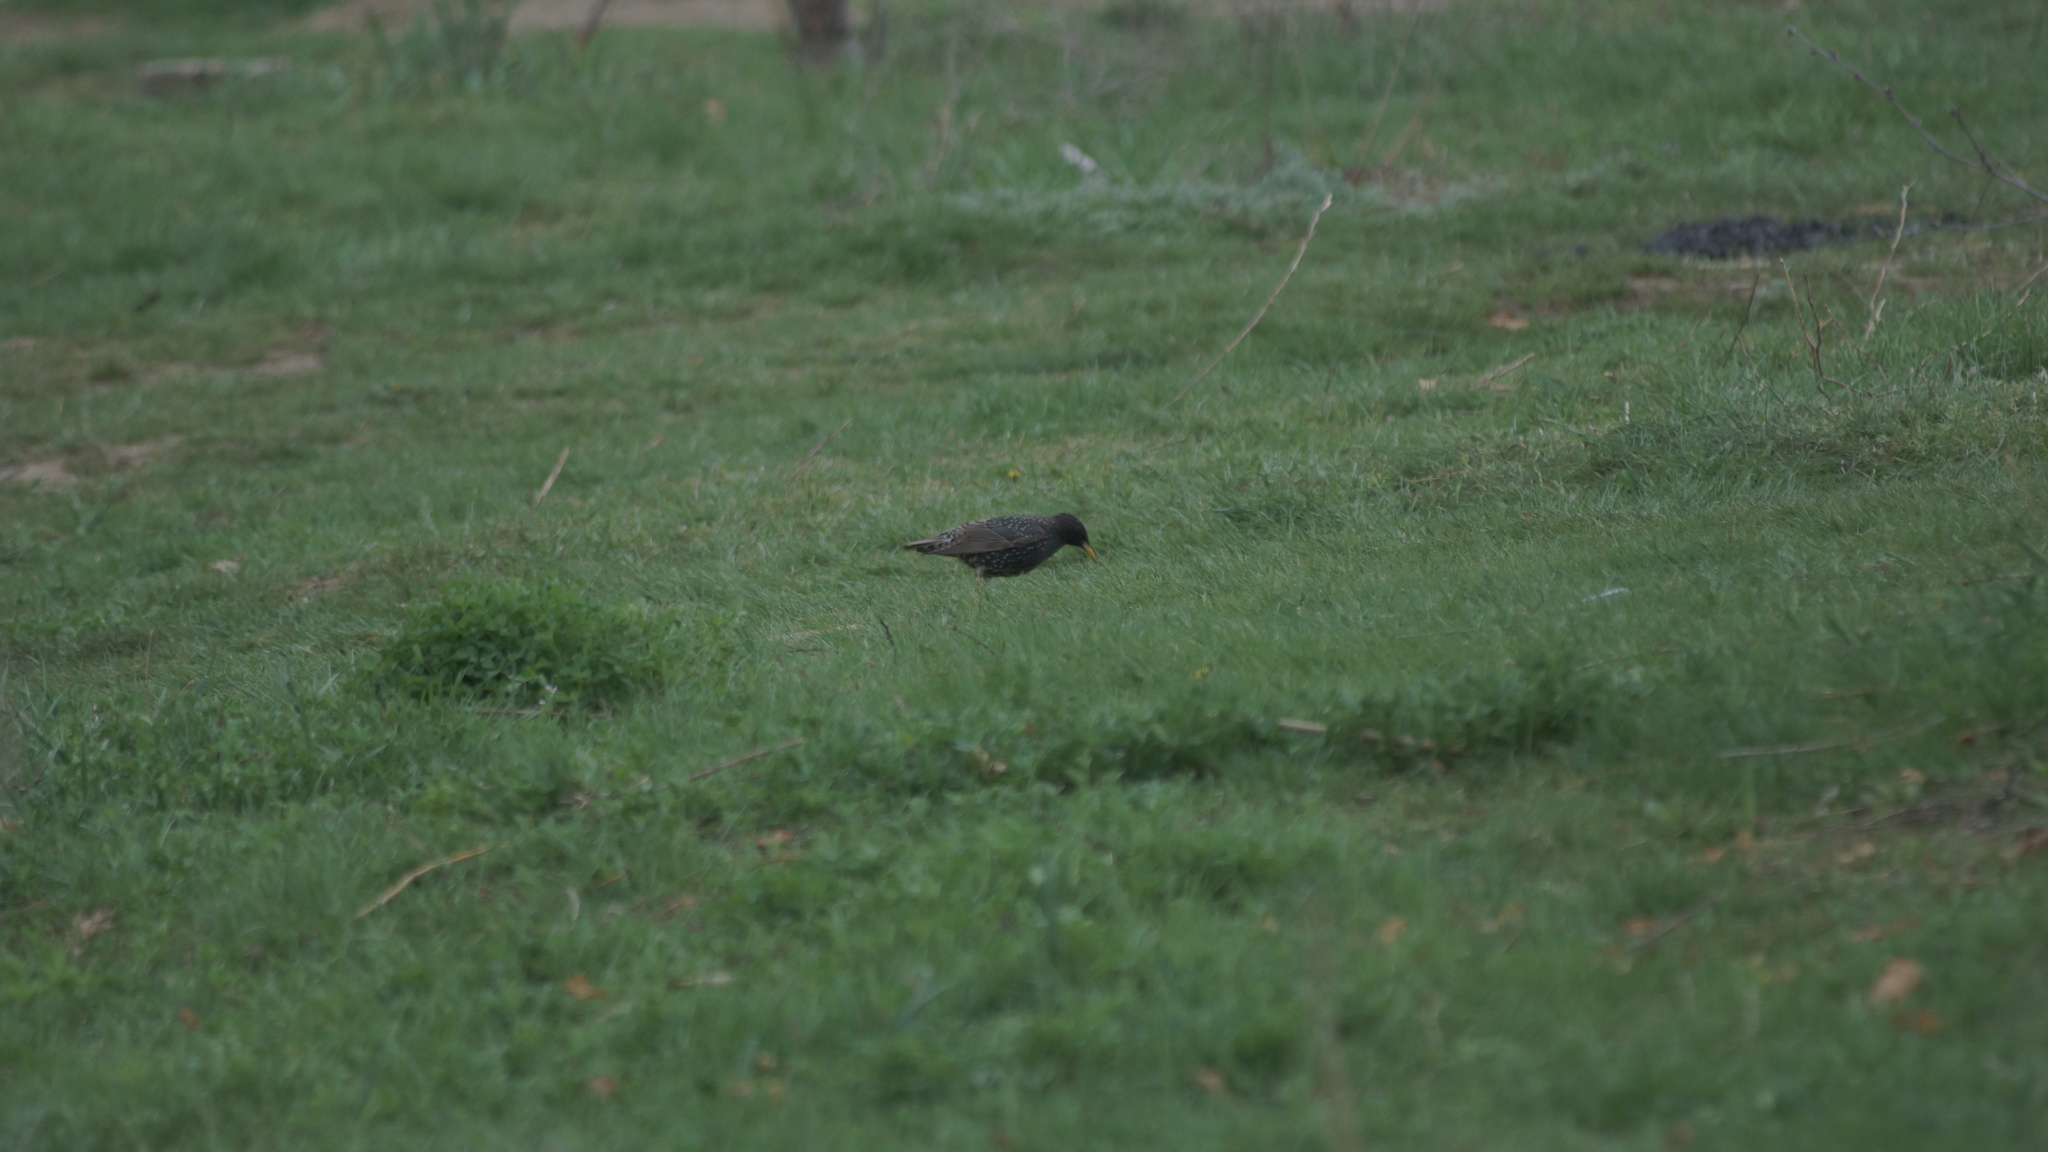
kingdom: Animalia
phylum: Chordata
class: Aves
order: Passeriformes
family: Sturnidae
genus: Sturnus
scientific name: Sturnus vulgaris
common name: Common starling
